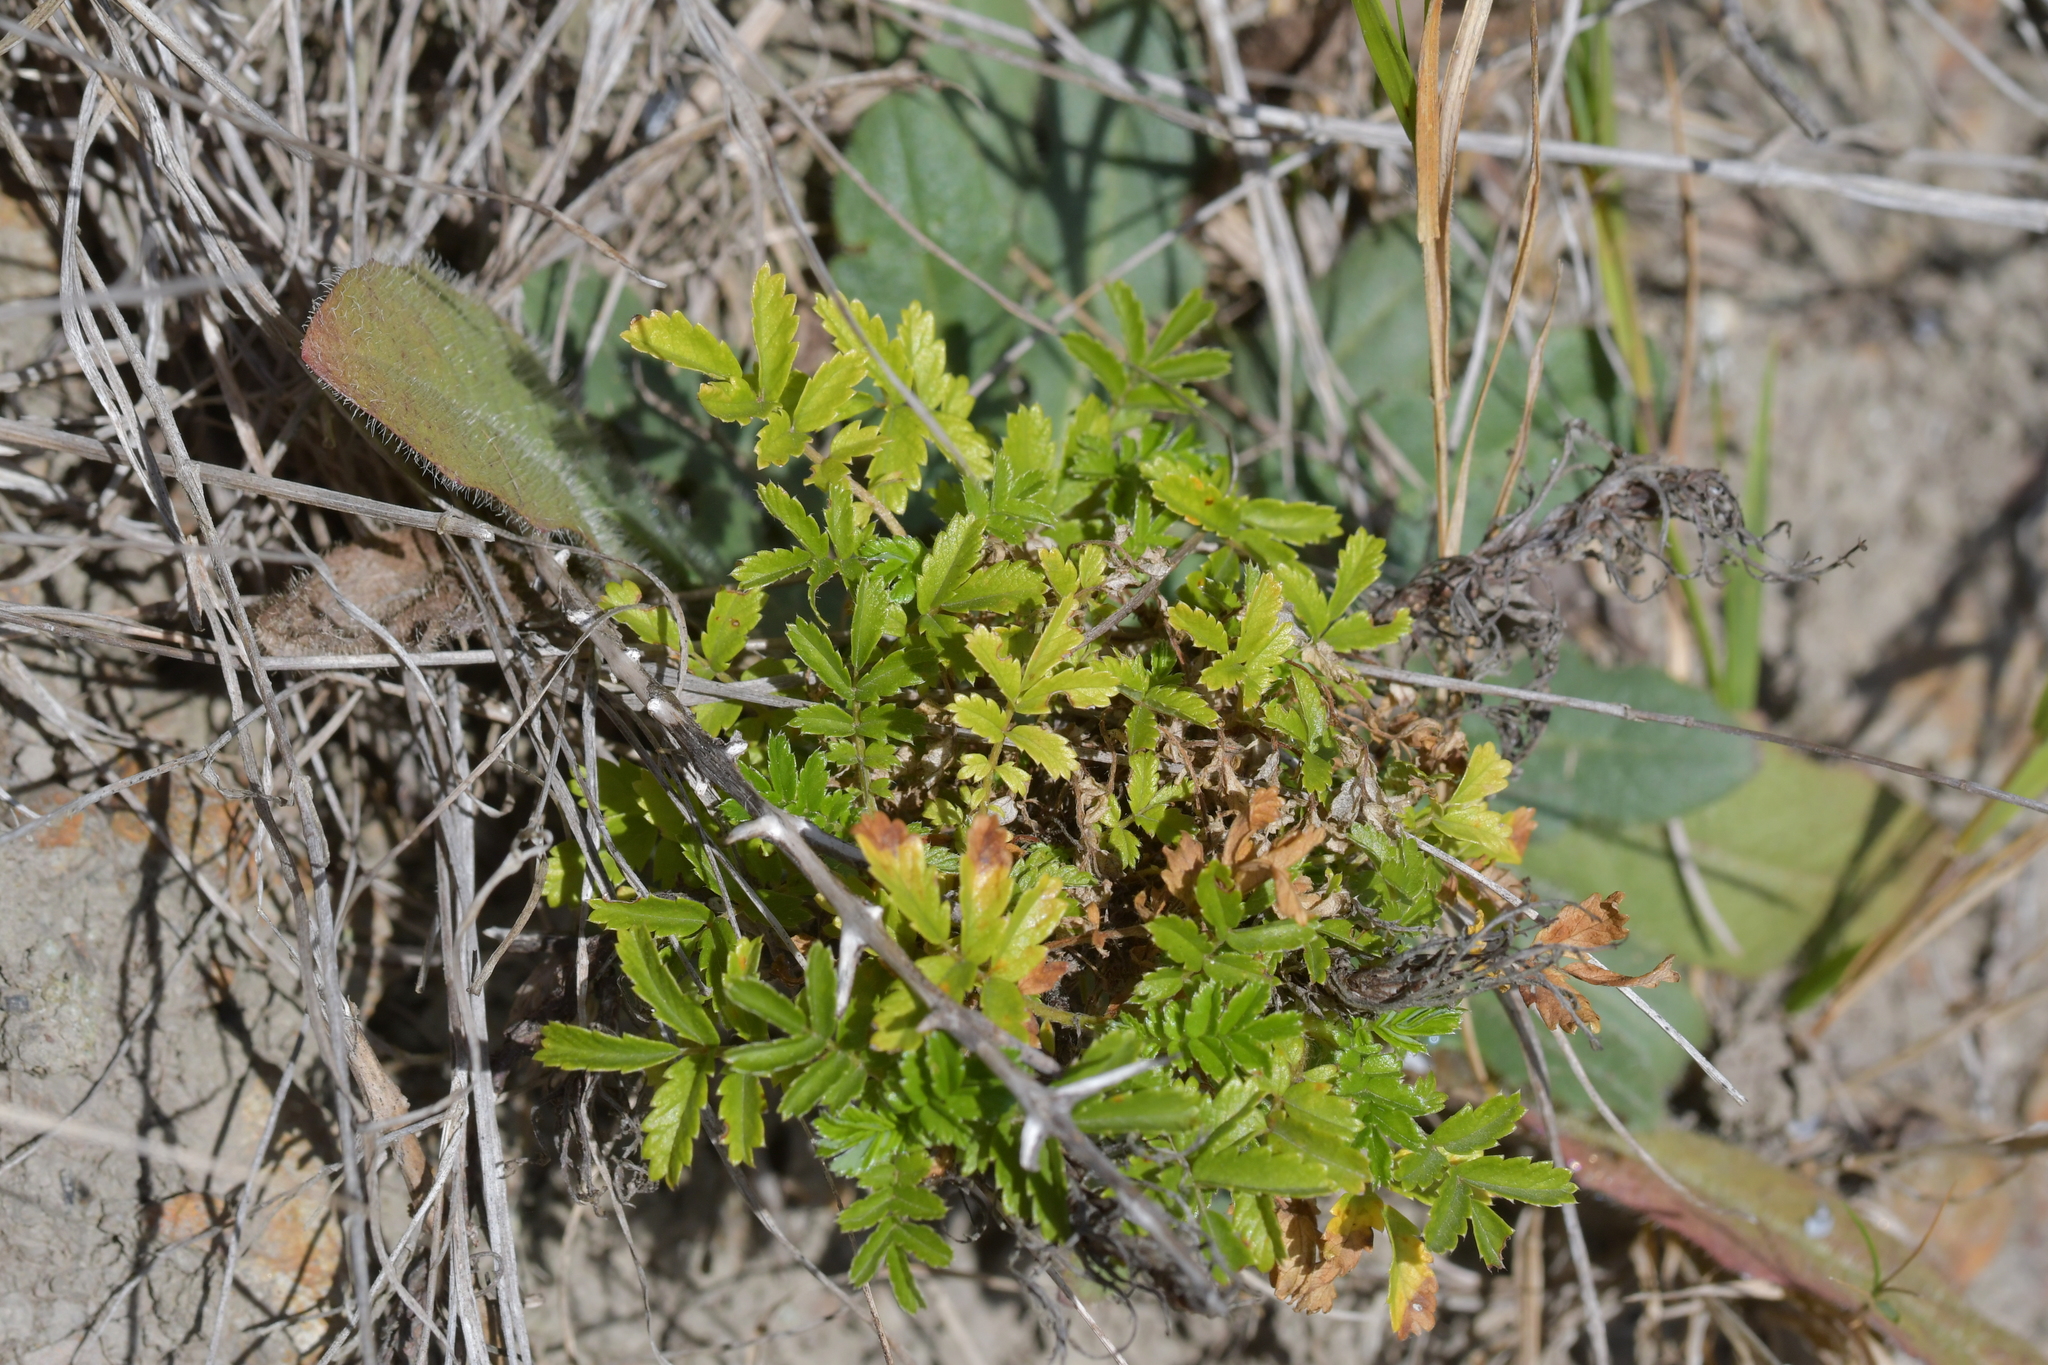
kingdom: Plantae
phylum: Tracheophyta
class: Magnoliopsida
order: Rosales
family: Rosaceae
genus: Acaena
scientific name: Acaena novae-zelandiae
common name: Pirri-pirri-bur
